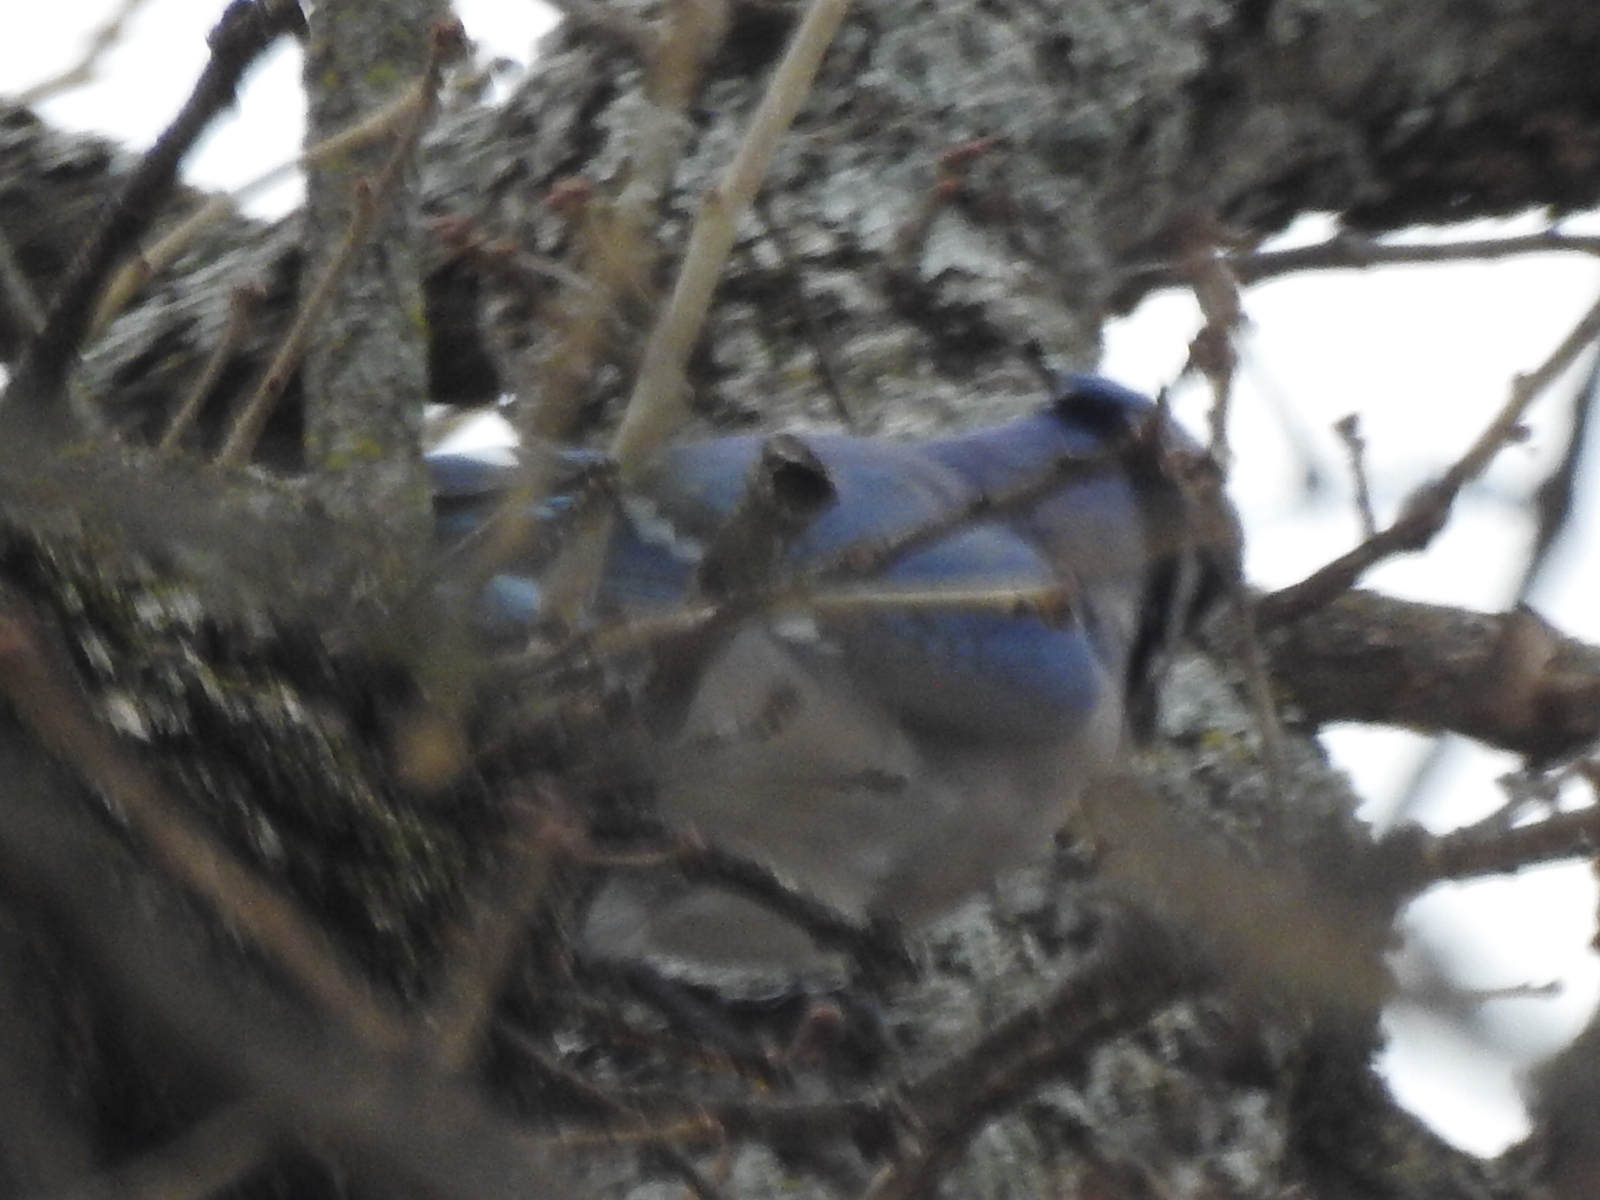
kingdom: Animalia
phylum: Chordata
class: Aves
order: Passeriformes
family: Corvidae
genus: Cyanocitta
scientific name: Cyanocitta cristata
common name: Blue jay
